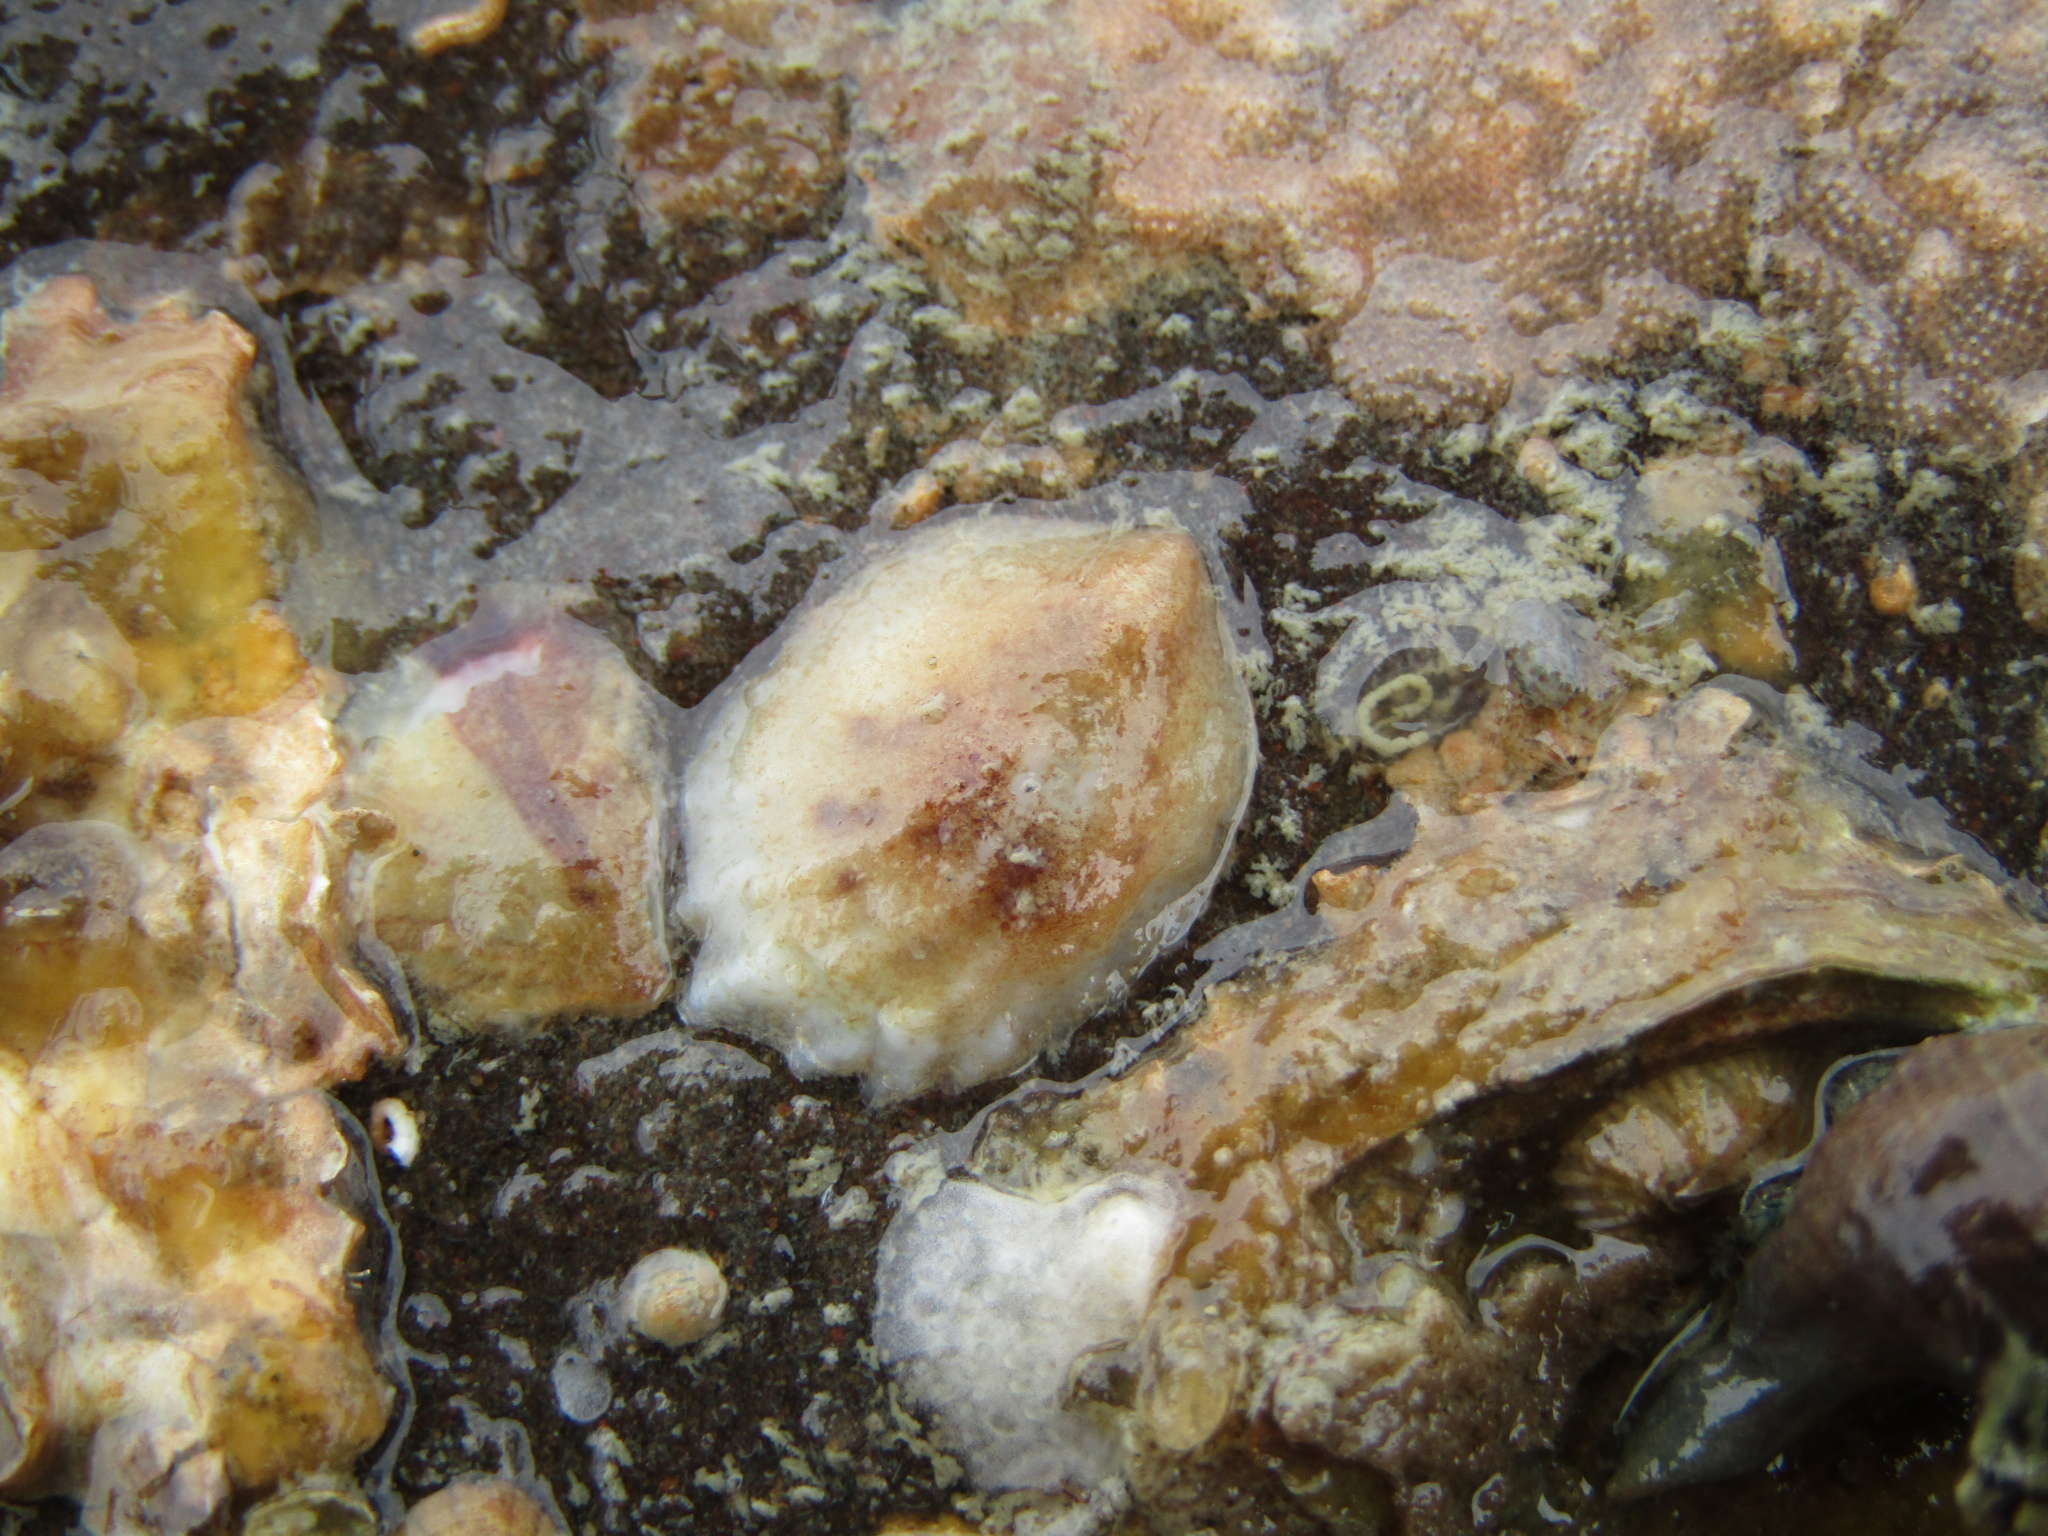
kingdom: Animalia
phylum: Mollusca
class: Gastropoda
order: Littorinimorpha
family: Calyptraeidae
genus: Maoricrypta
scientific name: Maoricrypta costata
